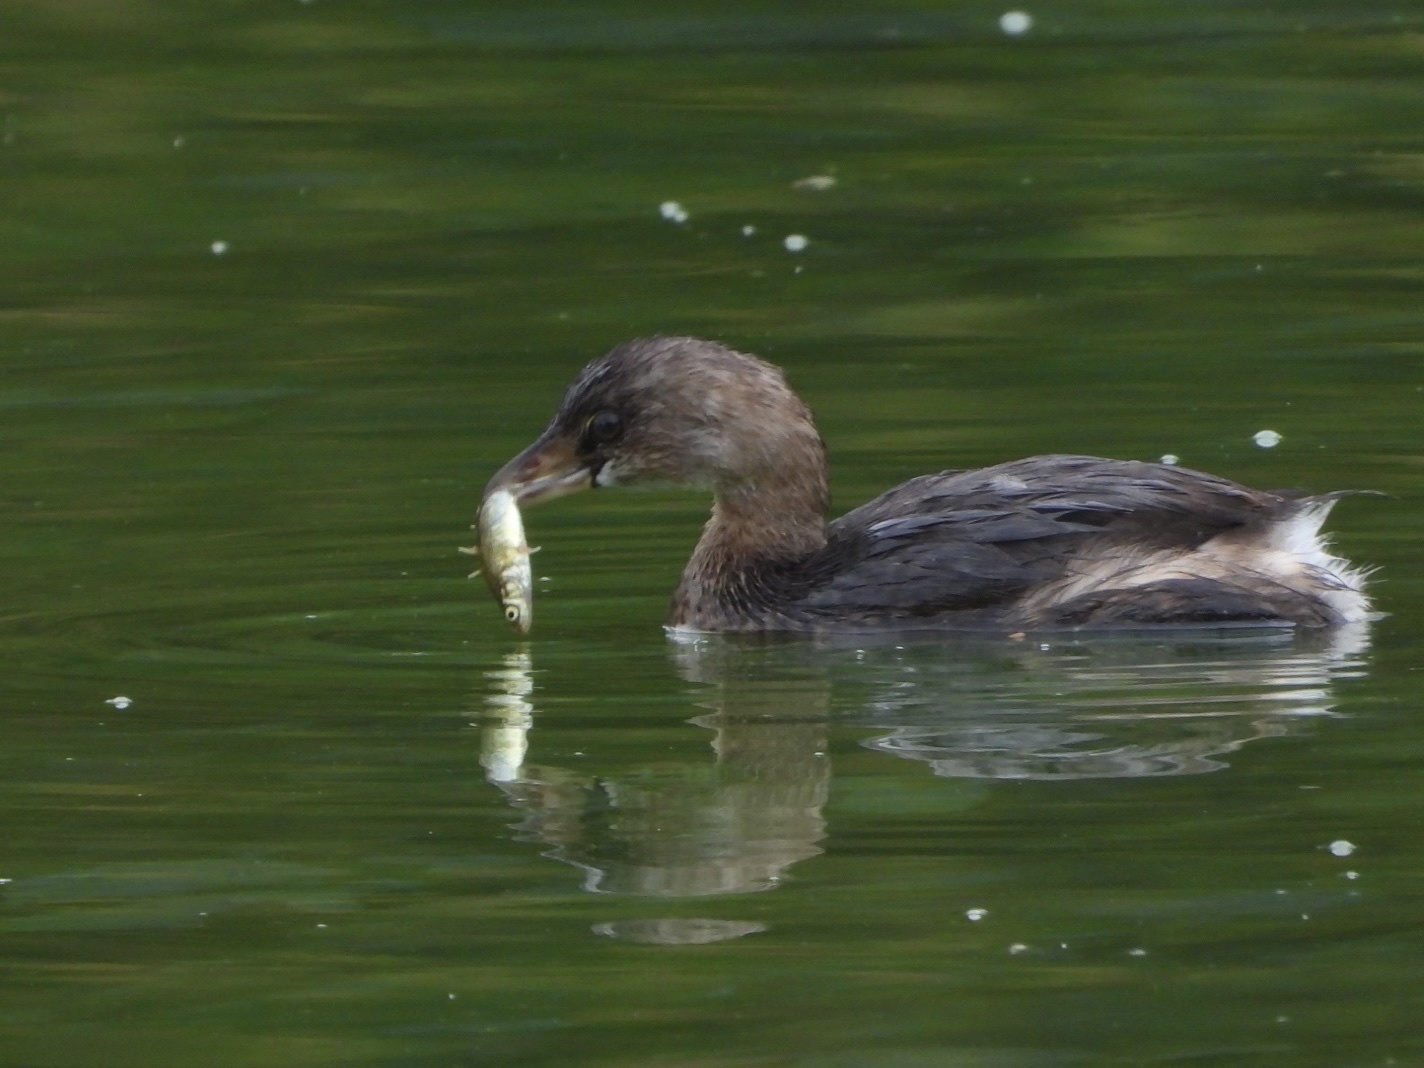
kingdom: Animalia
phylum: Chordata
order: Gasterosteiformes
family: Gasterosteidae
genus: Gasterosteus
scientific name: Gasterosteus aculeatus
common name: Three-spined stickleback
